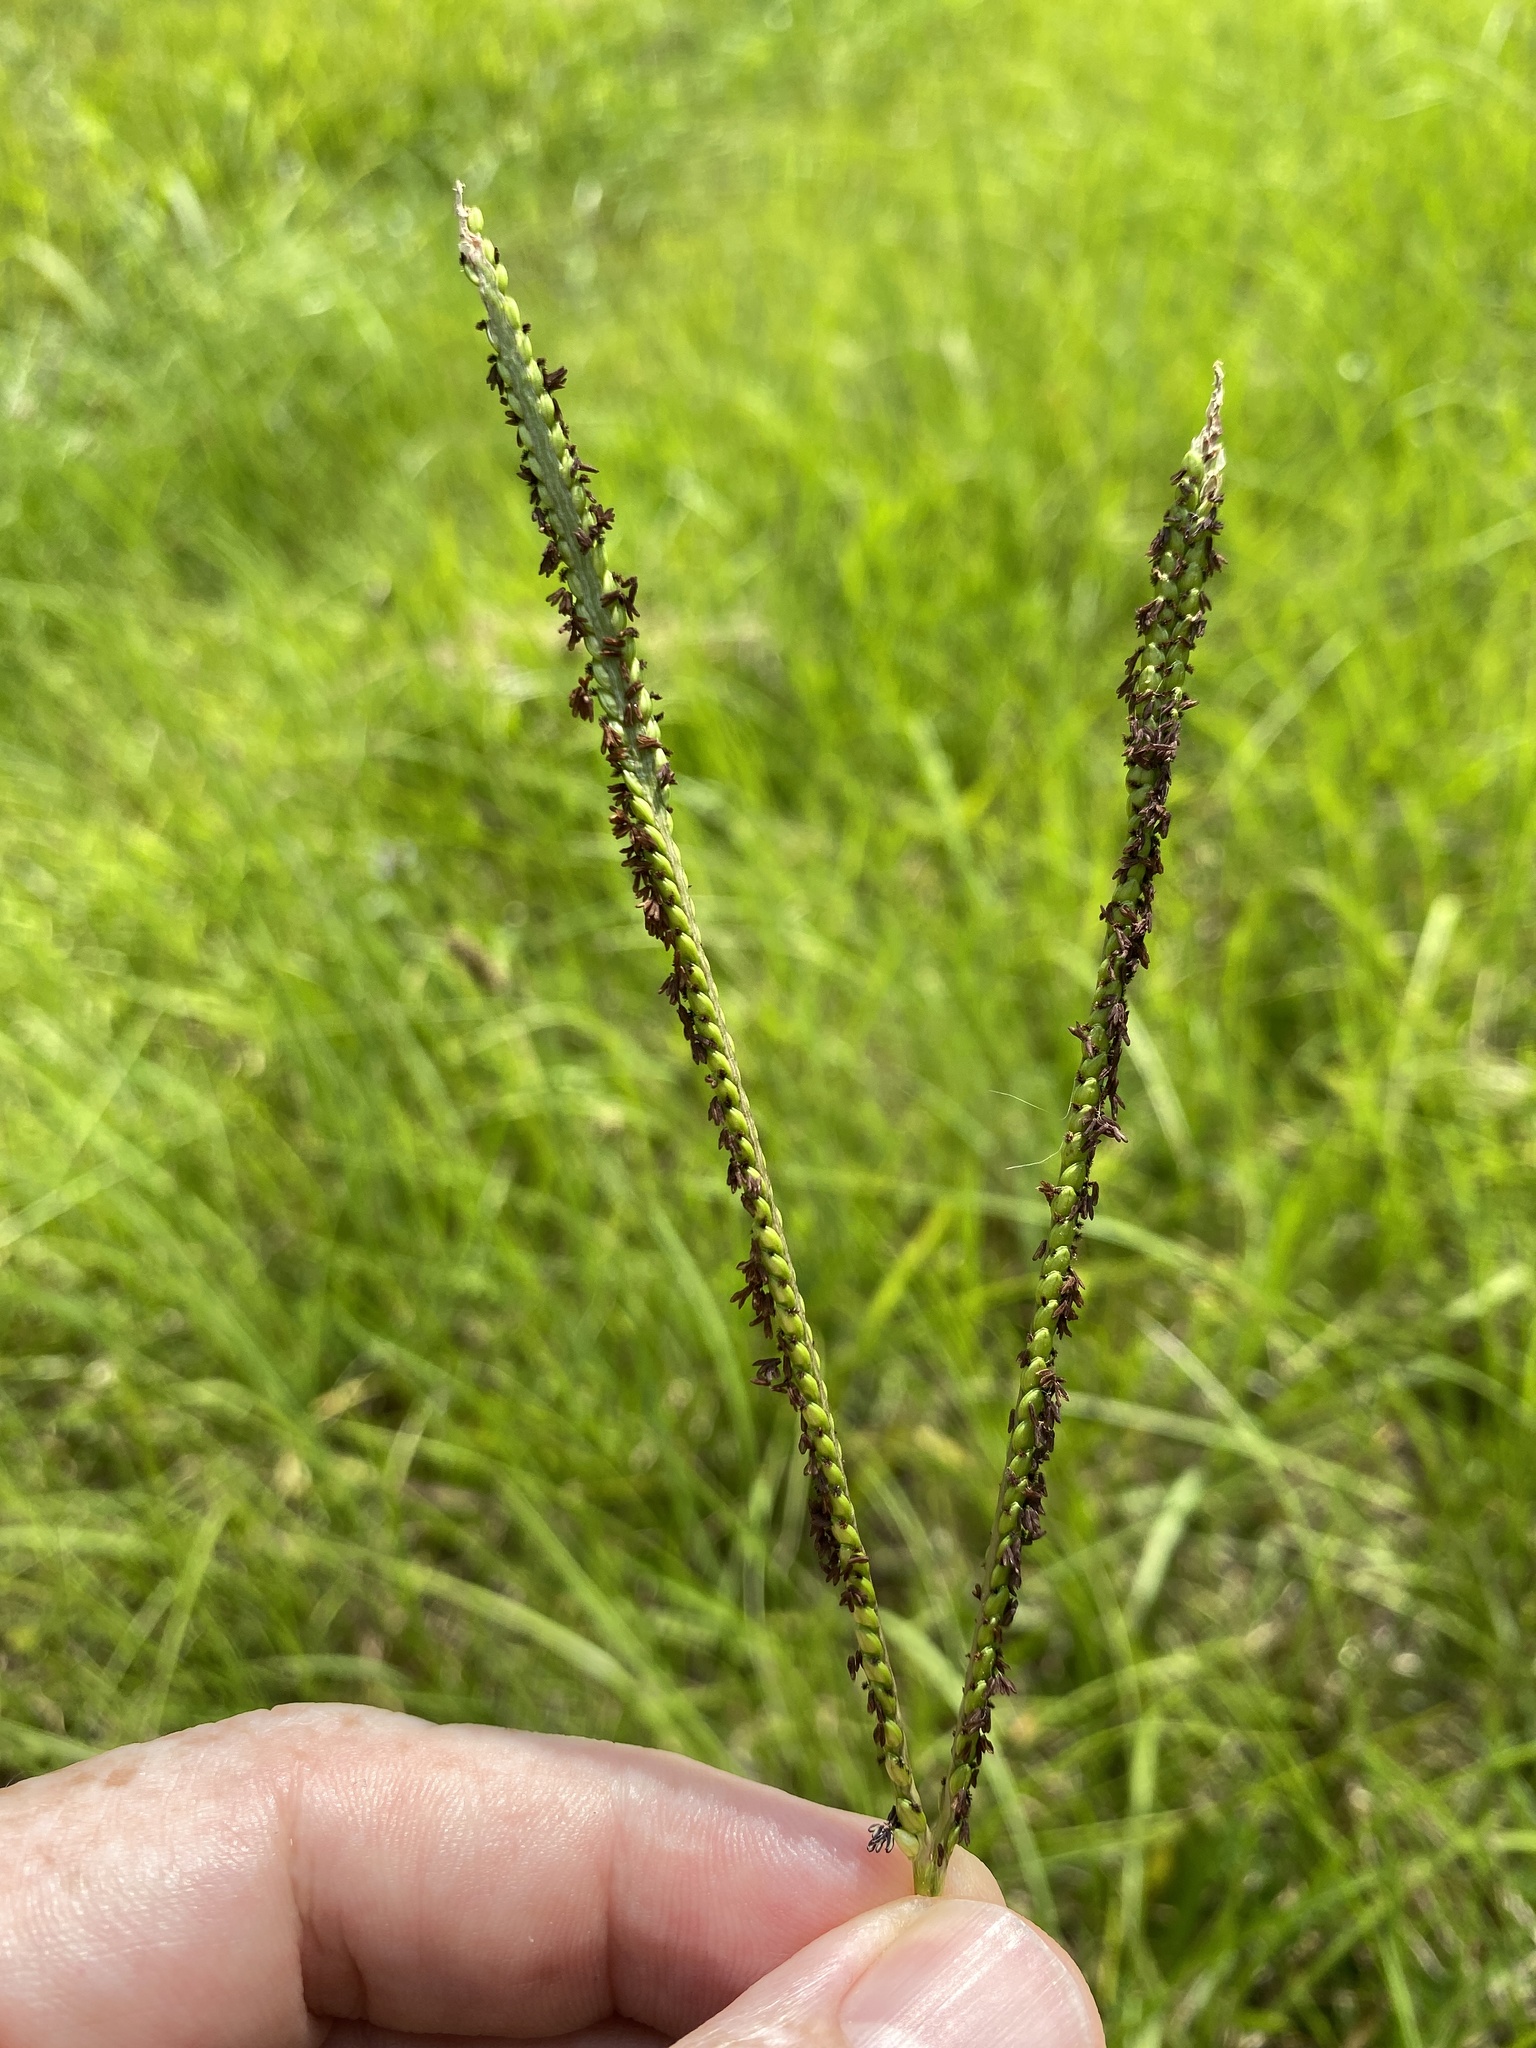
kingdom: Plantae
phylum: Tracheophyta
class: Liliopsida
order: Poales
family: Poaceae
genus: Paspalum
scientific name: Paspalum notatum
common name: Bahiagrass
